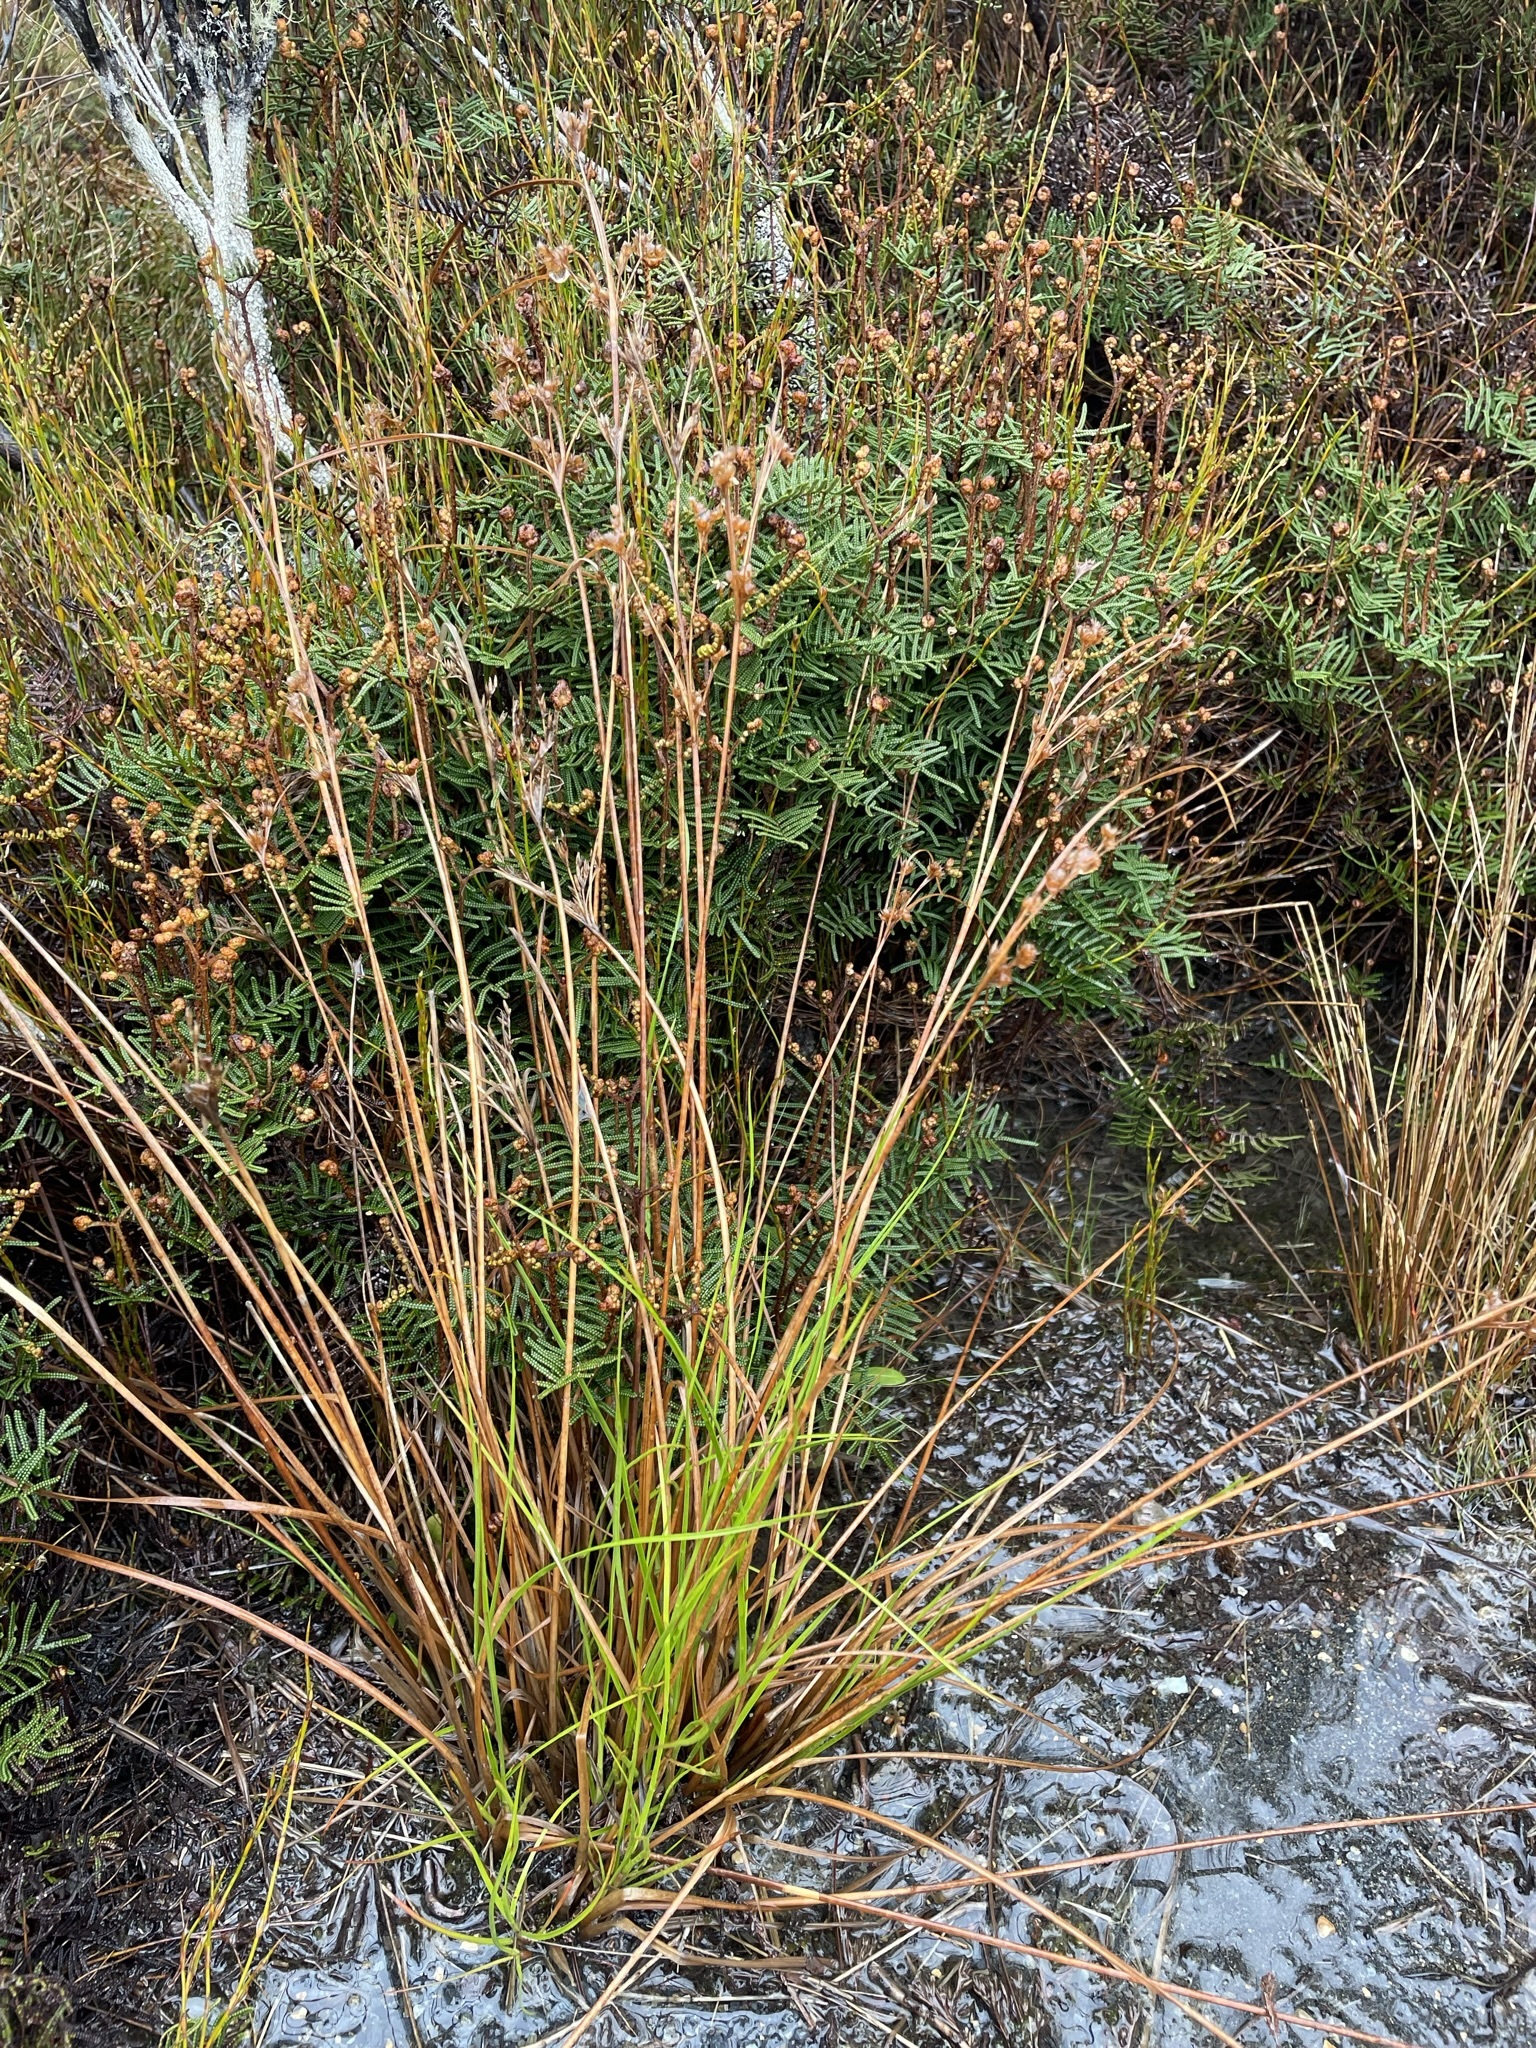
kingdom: Plantae
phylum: Tracheophyta
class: Liliopsida
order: Poales
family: Juncaceae
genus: Juncus
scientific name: Juncus tenuis
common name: Slender rush
